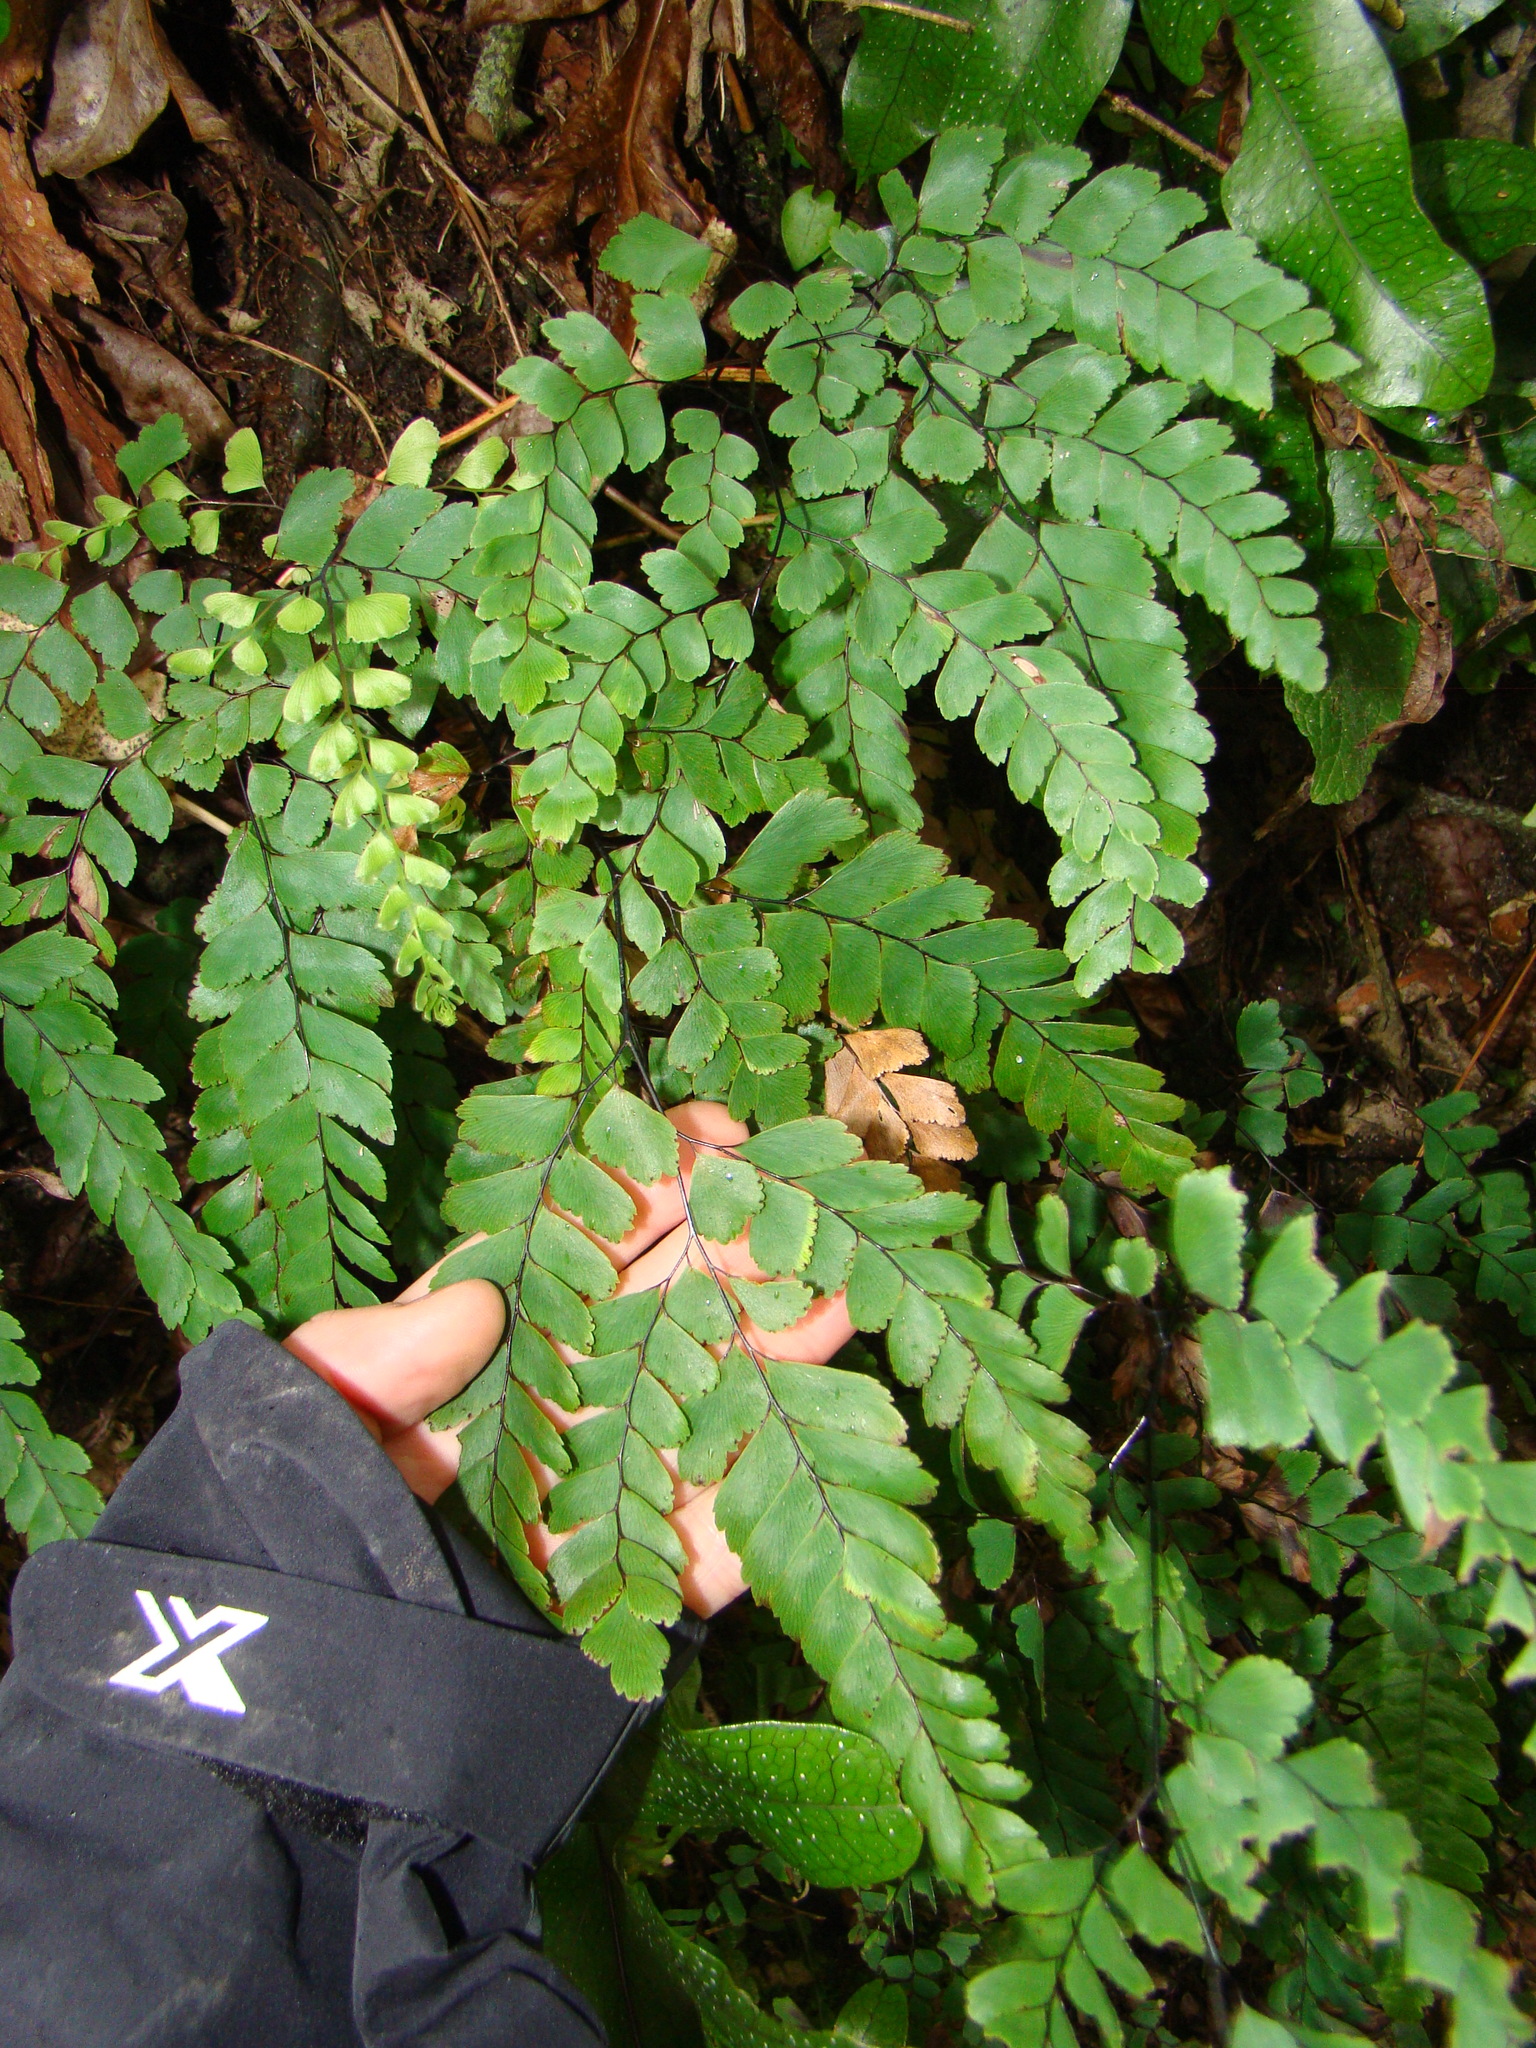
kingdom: Plantae
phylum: Tracheophyta
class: Polypodiopsida
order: Polypodiales
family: Pteridaceae
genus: Adiantum
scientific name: Adiantum cunninghamii
